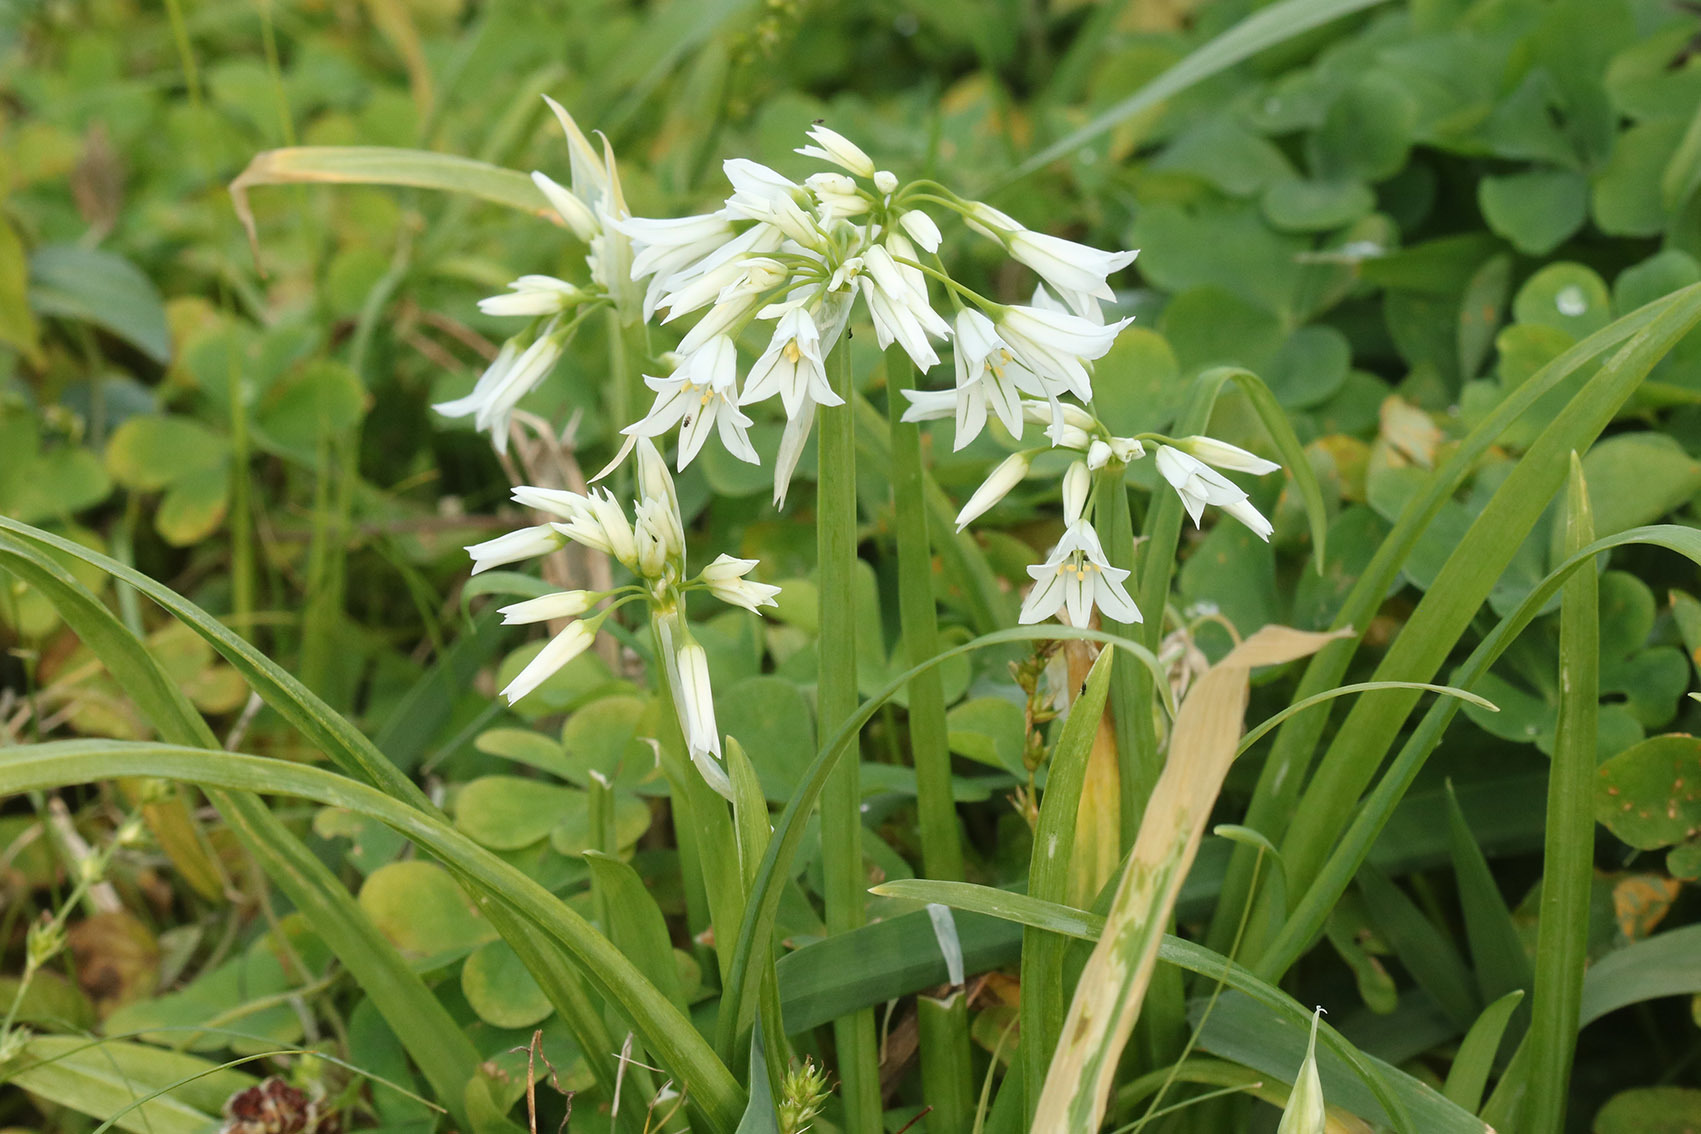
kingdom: Plantae
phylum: Tracheophyta
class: Liliopsida
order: Asparagales
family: Amaryllidaceae
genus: Allium
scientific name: Allium triquetrum
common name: Three-cornered garlic
